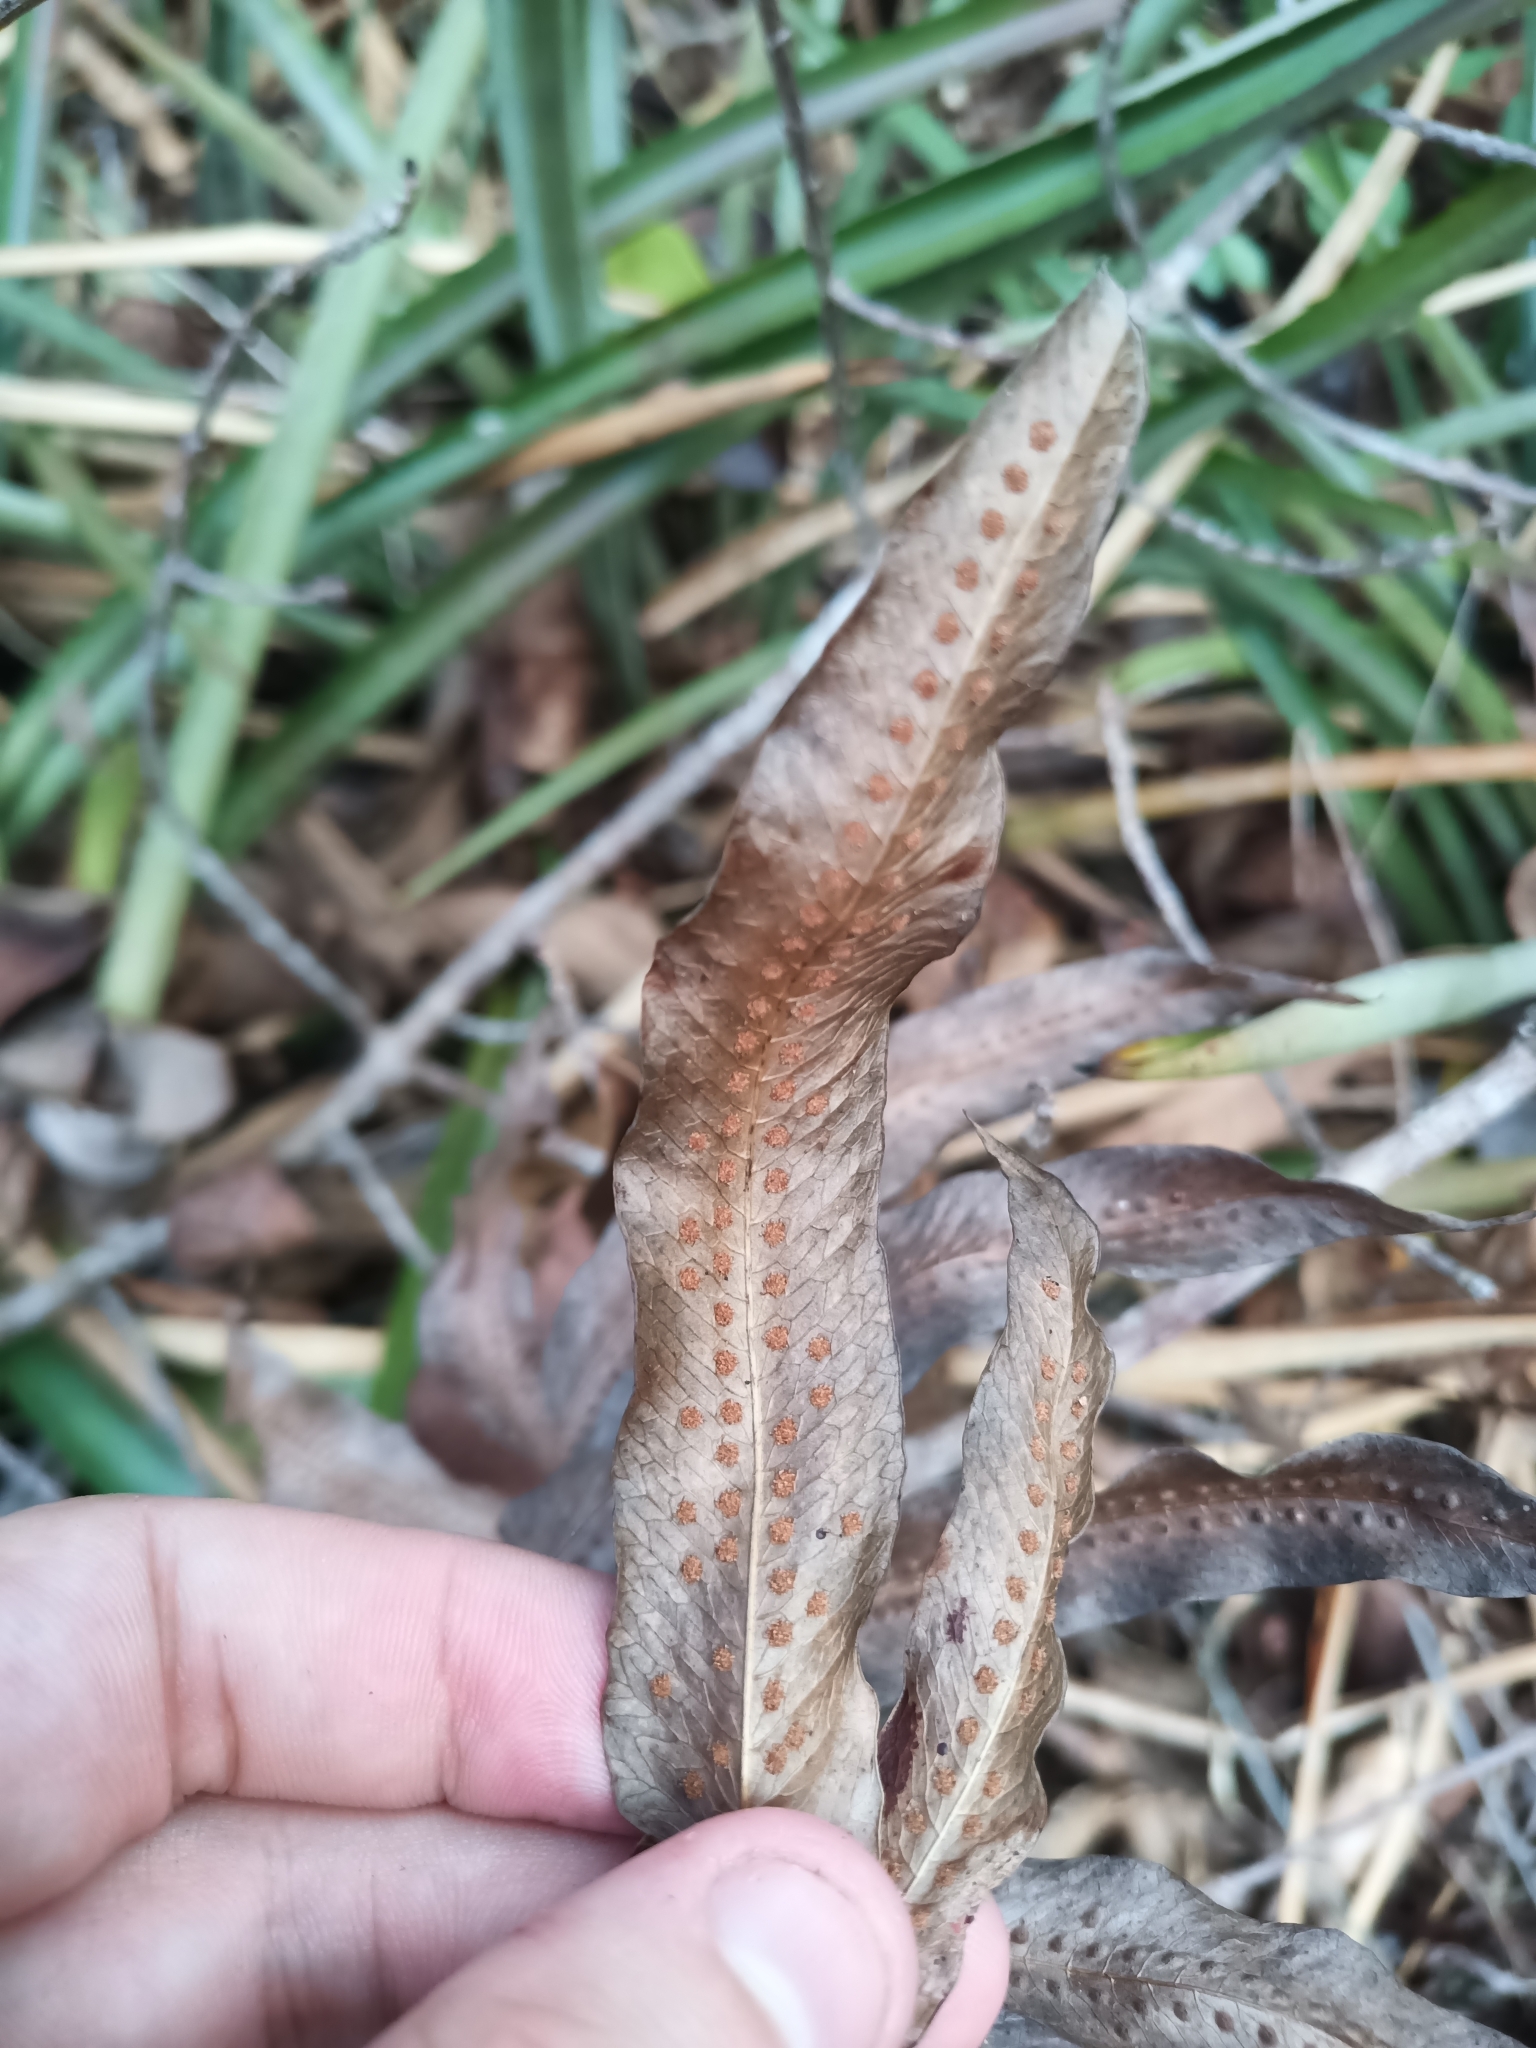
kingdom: Plantae
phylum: Tracheophyta
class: Polypodiopsida
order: Polypodiales
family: Polypodiaceae
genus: Serpocaulon
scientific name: Serpocaulon
